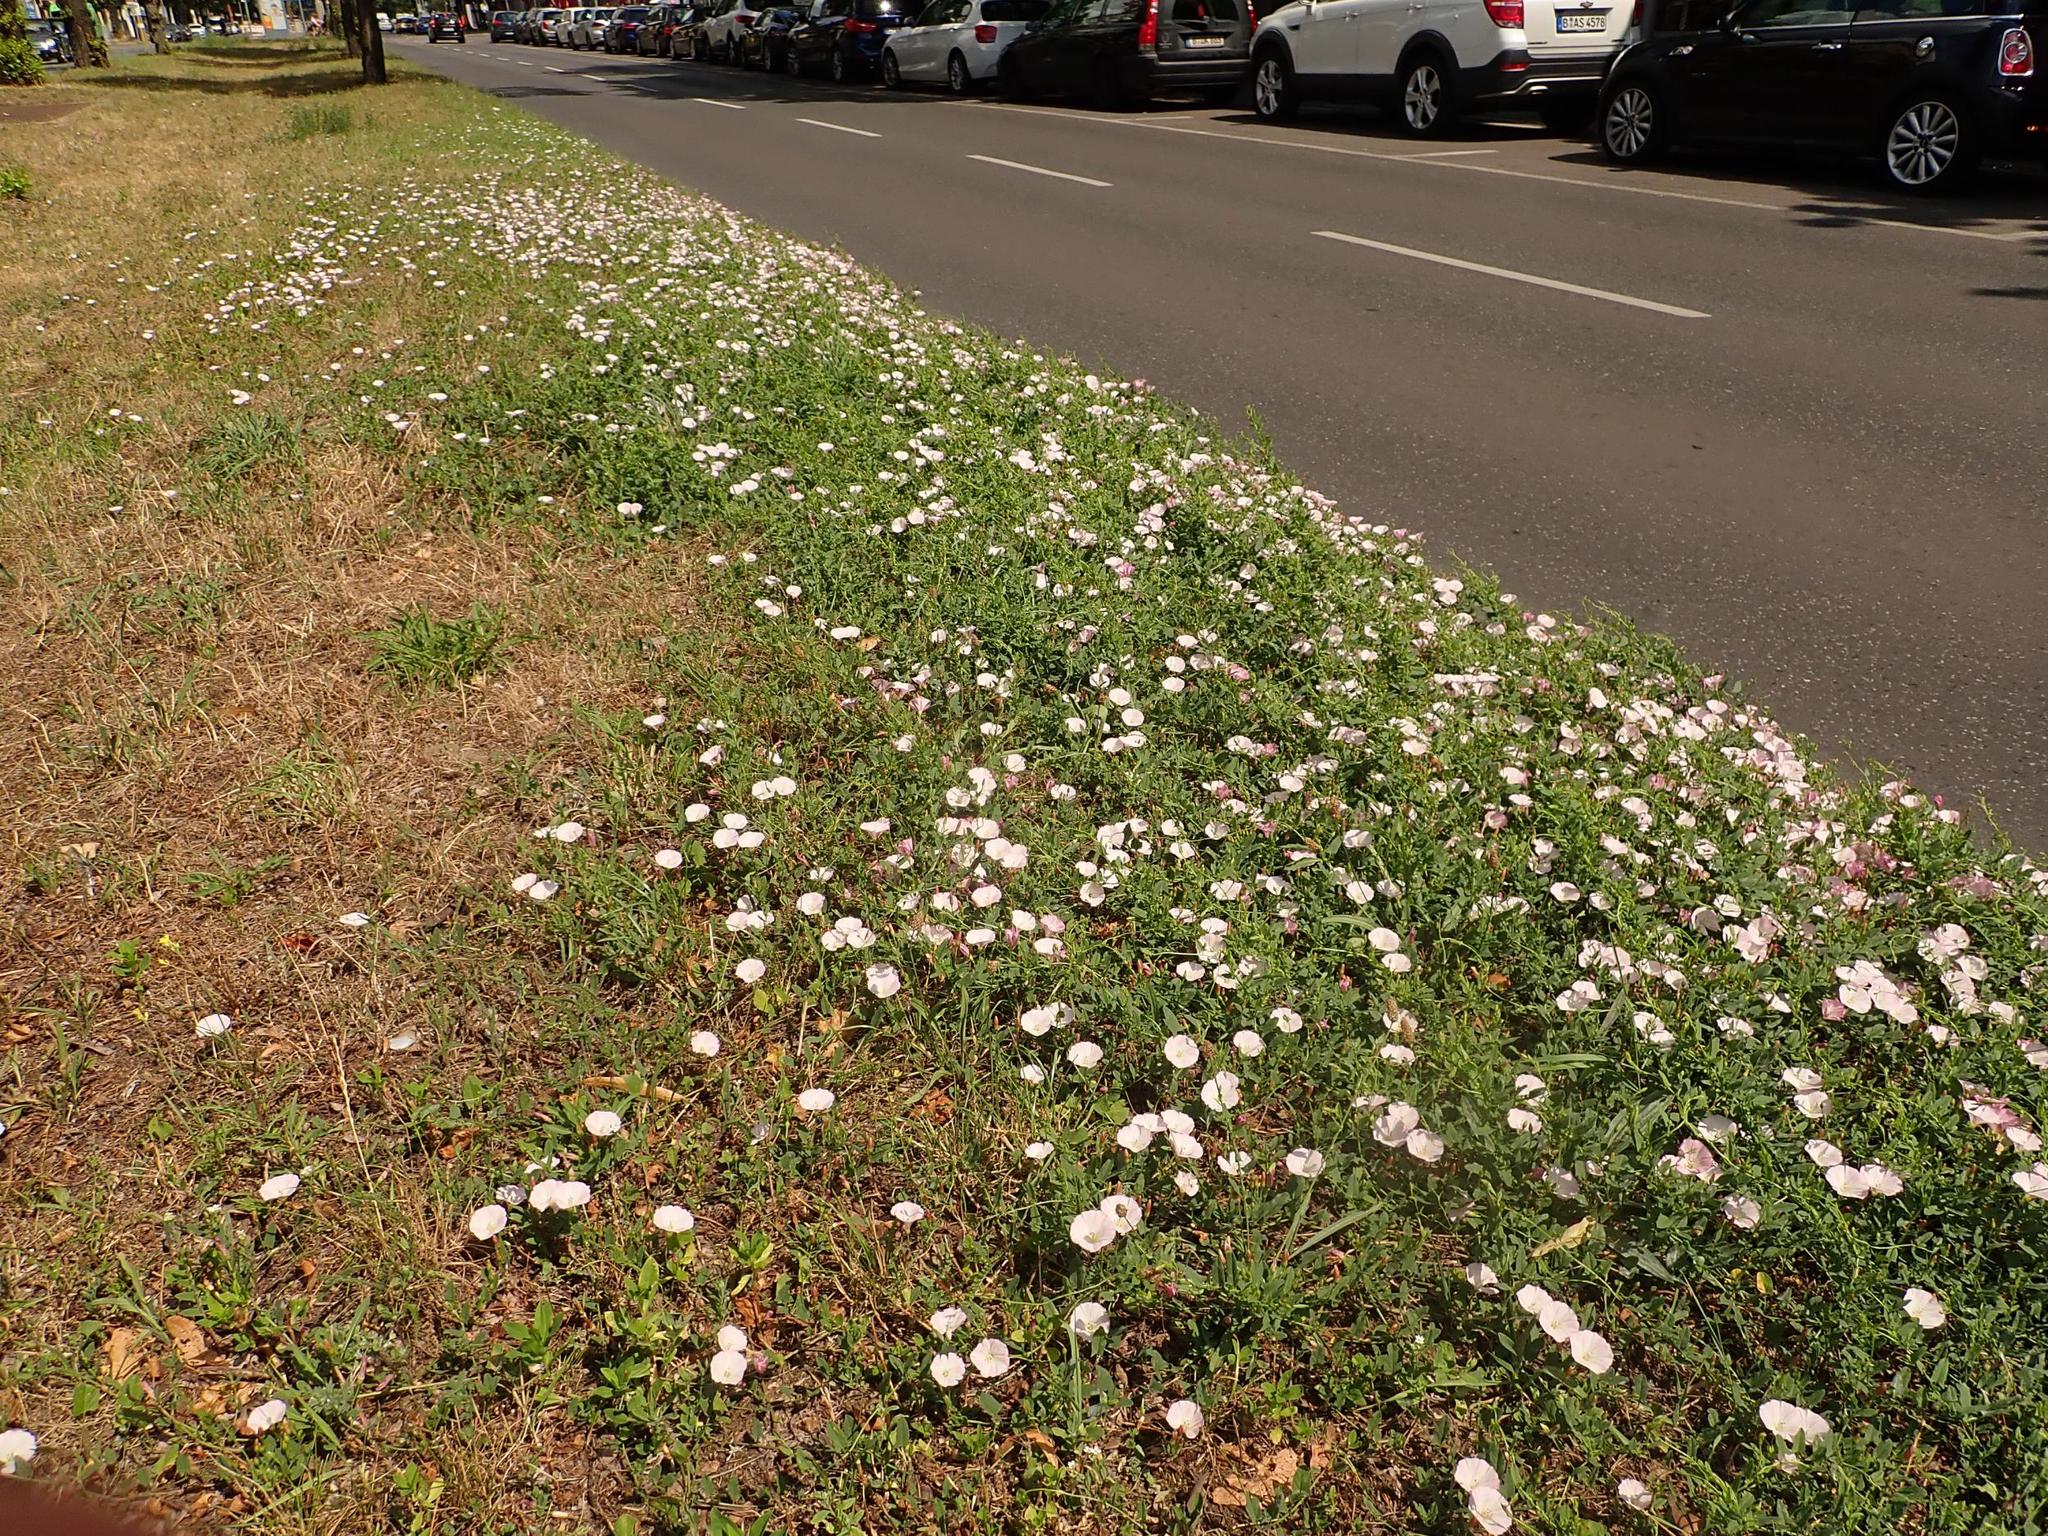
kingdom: Plantae
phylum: Tracheophyta
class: Magnoliopsida
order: Solanales
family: Convolvulaceae
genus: Convolvulus
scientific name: Convolvulus arvensis
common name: Field bindweed
